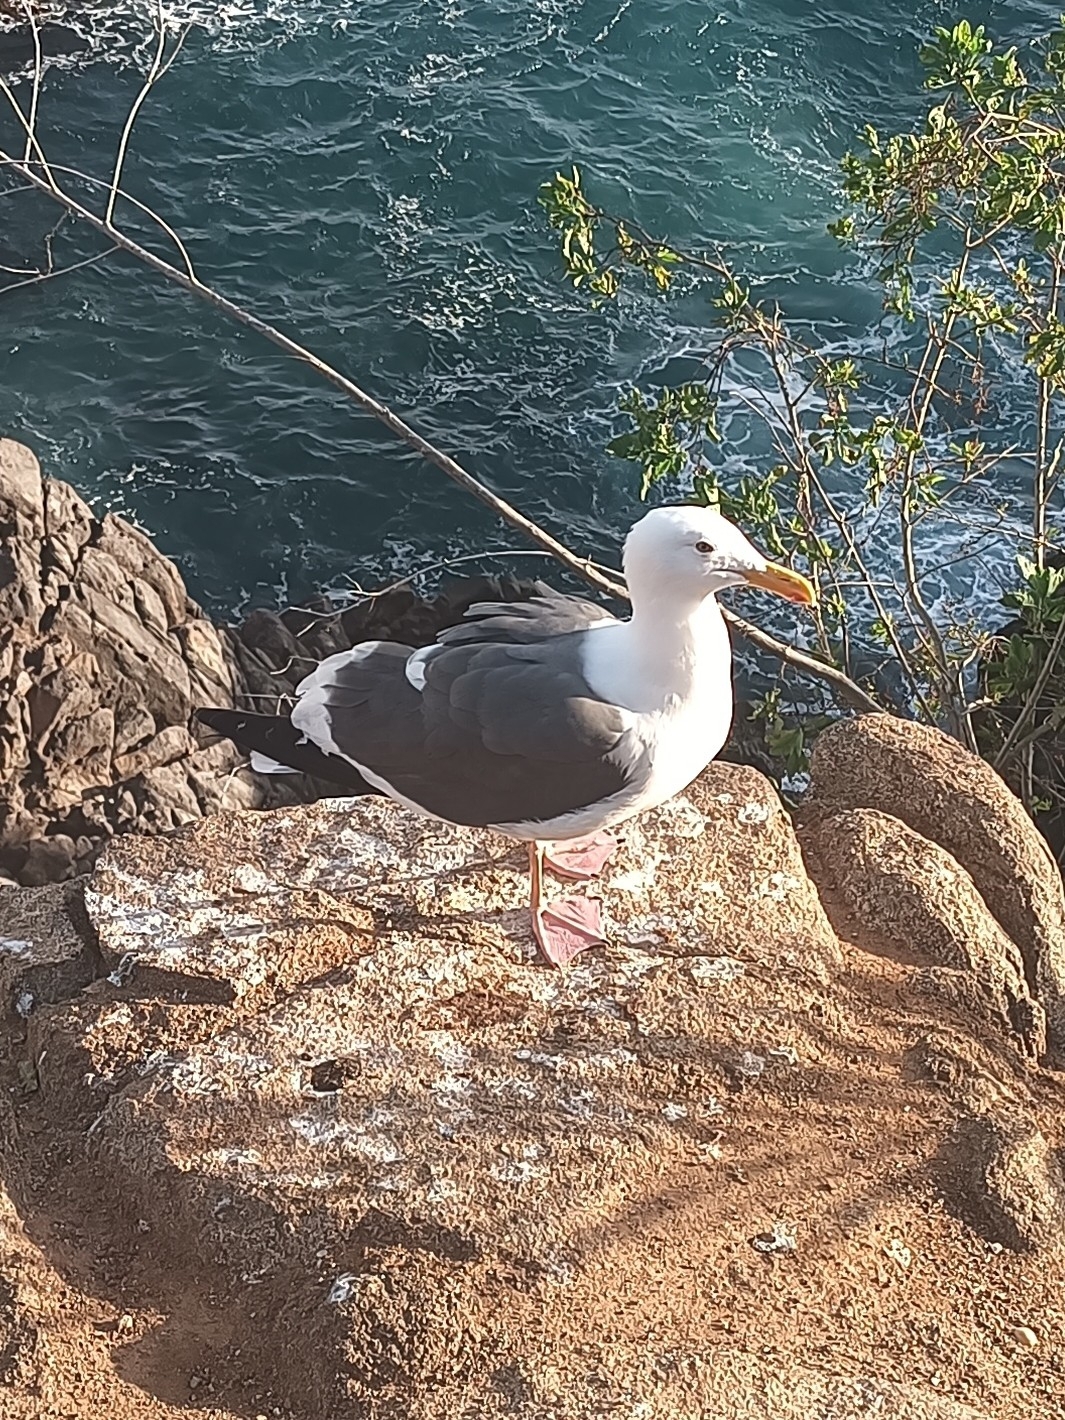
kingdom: Animalia
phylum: Chordata
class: Aves
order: Charadriiformes
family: Laridae
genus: Larus
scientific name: Larus occidentalis
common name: Western gull
